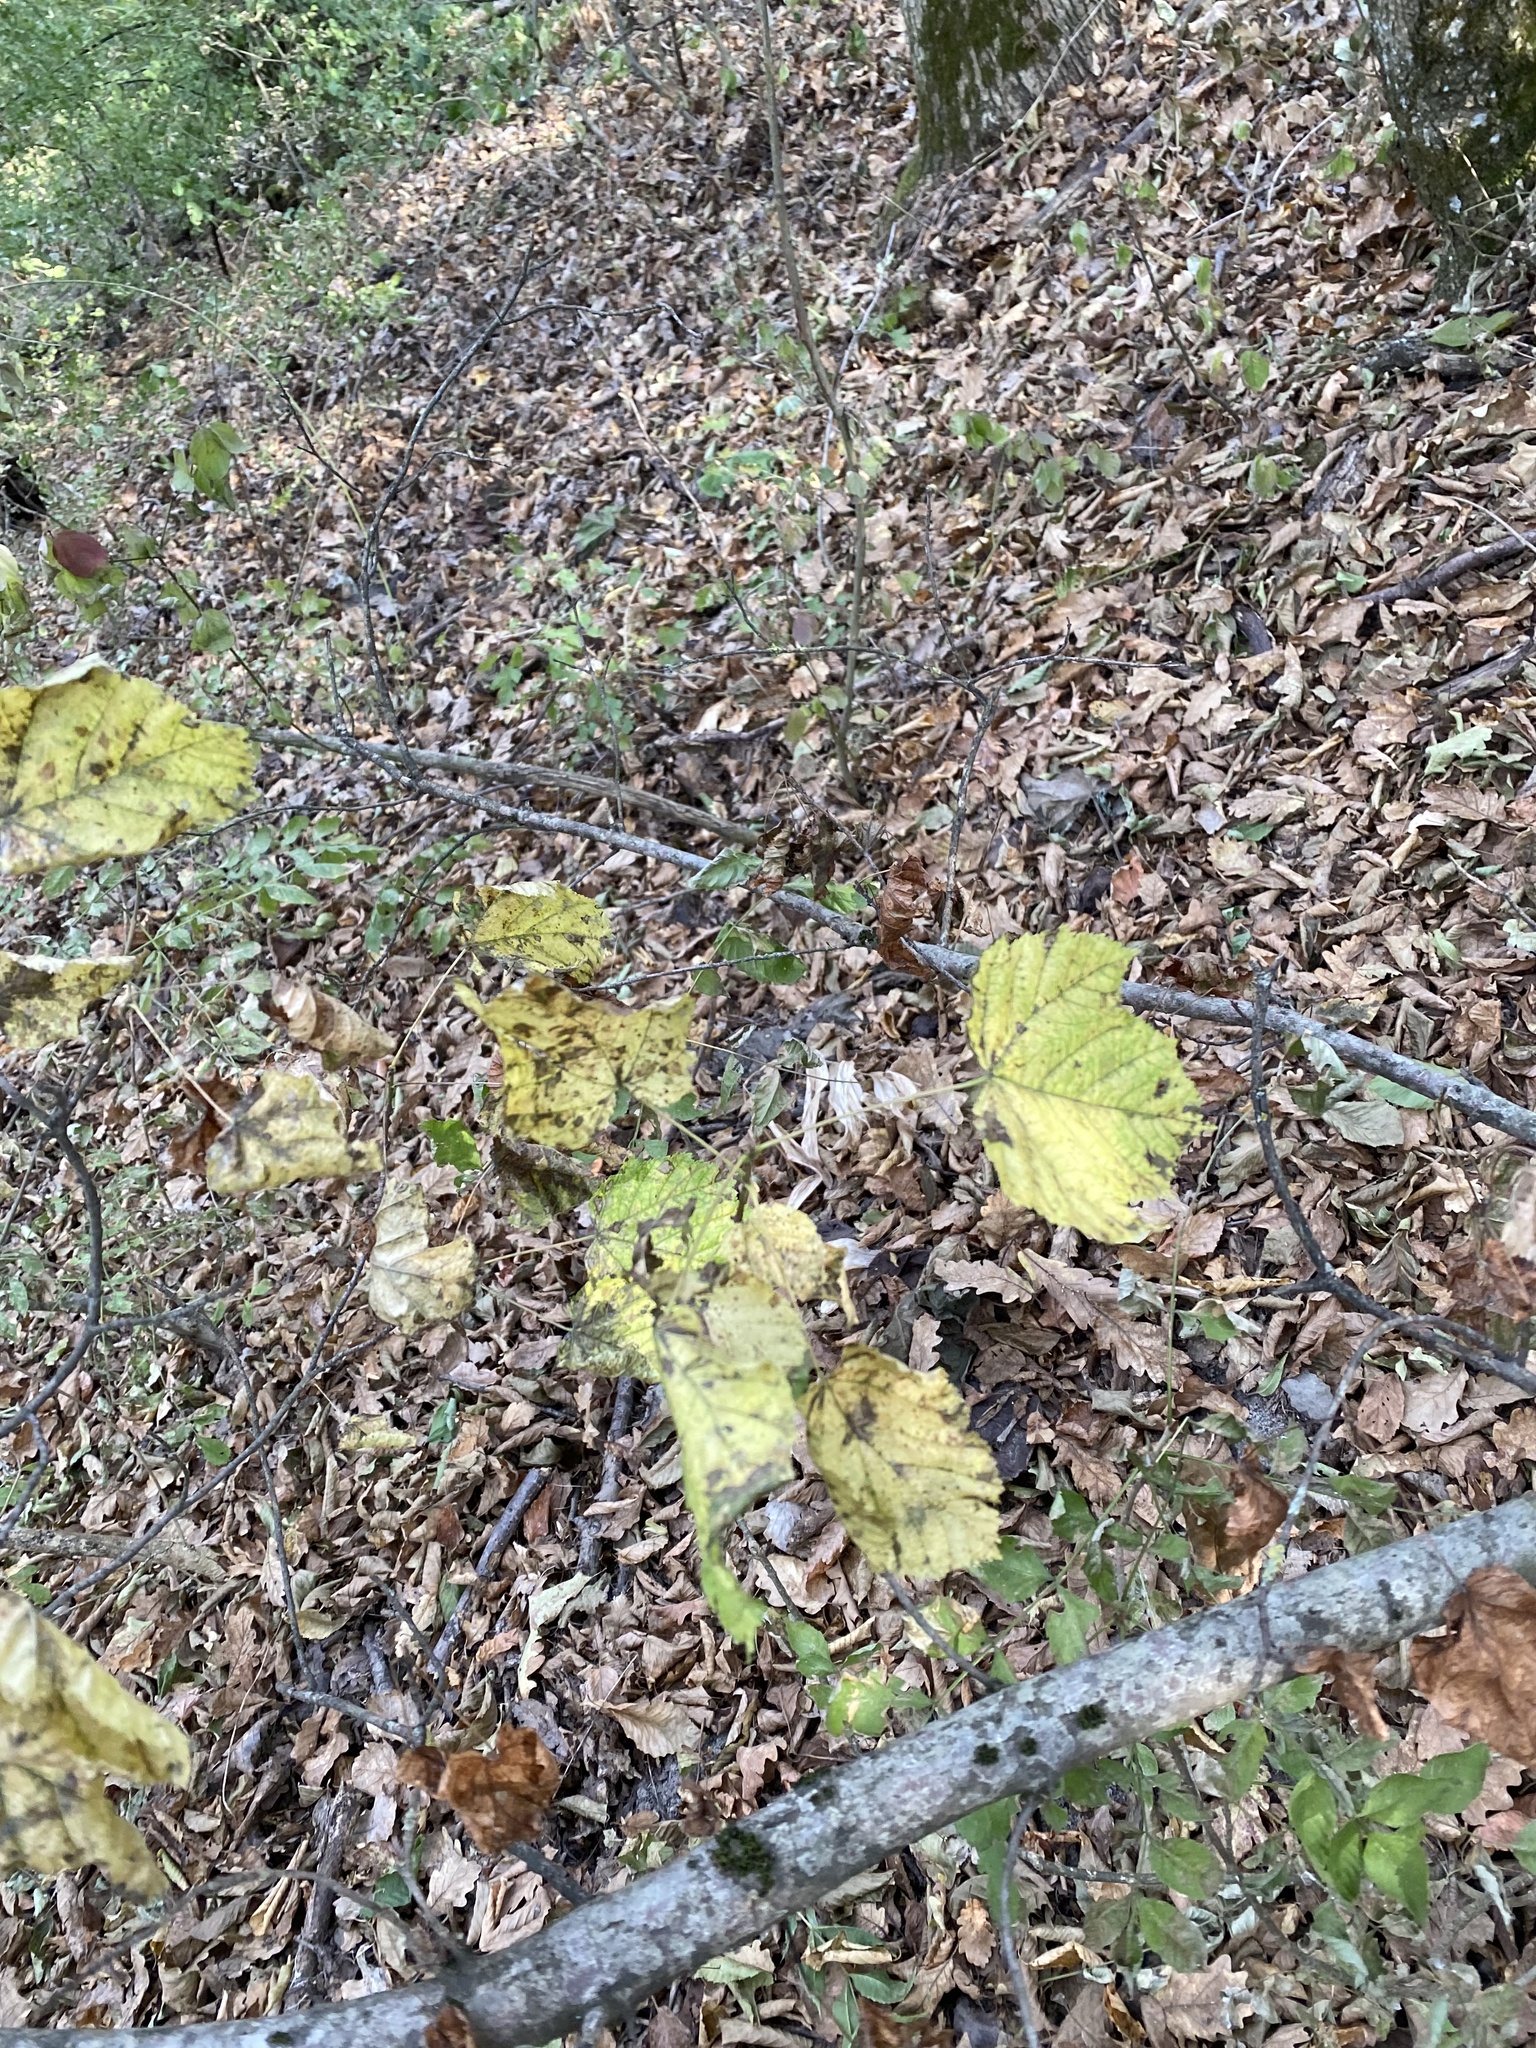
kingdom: Plantae
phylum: Tracheophyta
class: Magnoliopsida
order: Sapindales
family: Sapindaceae
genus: Acer
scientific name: Acer tataricum
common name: Tartar maple
